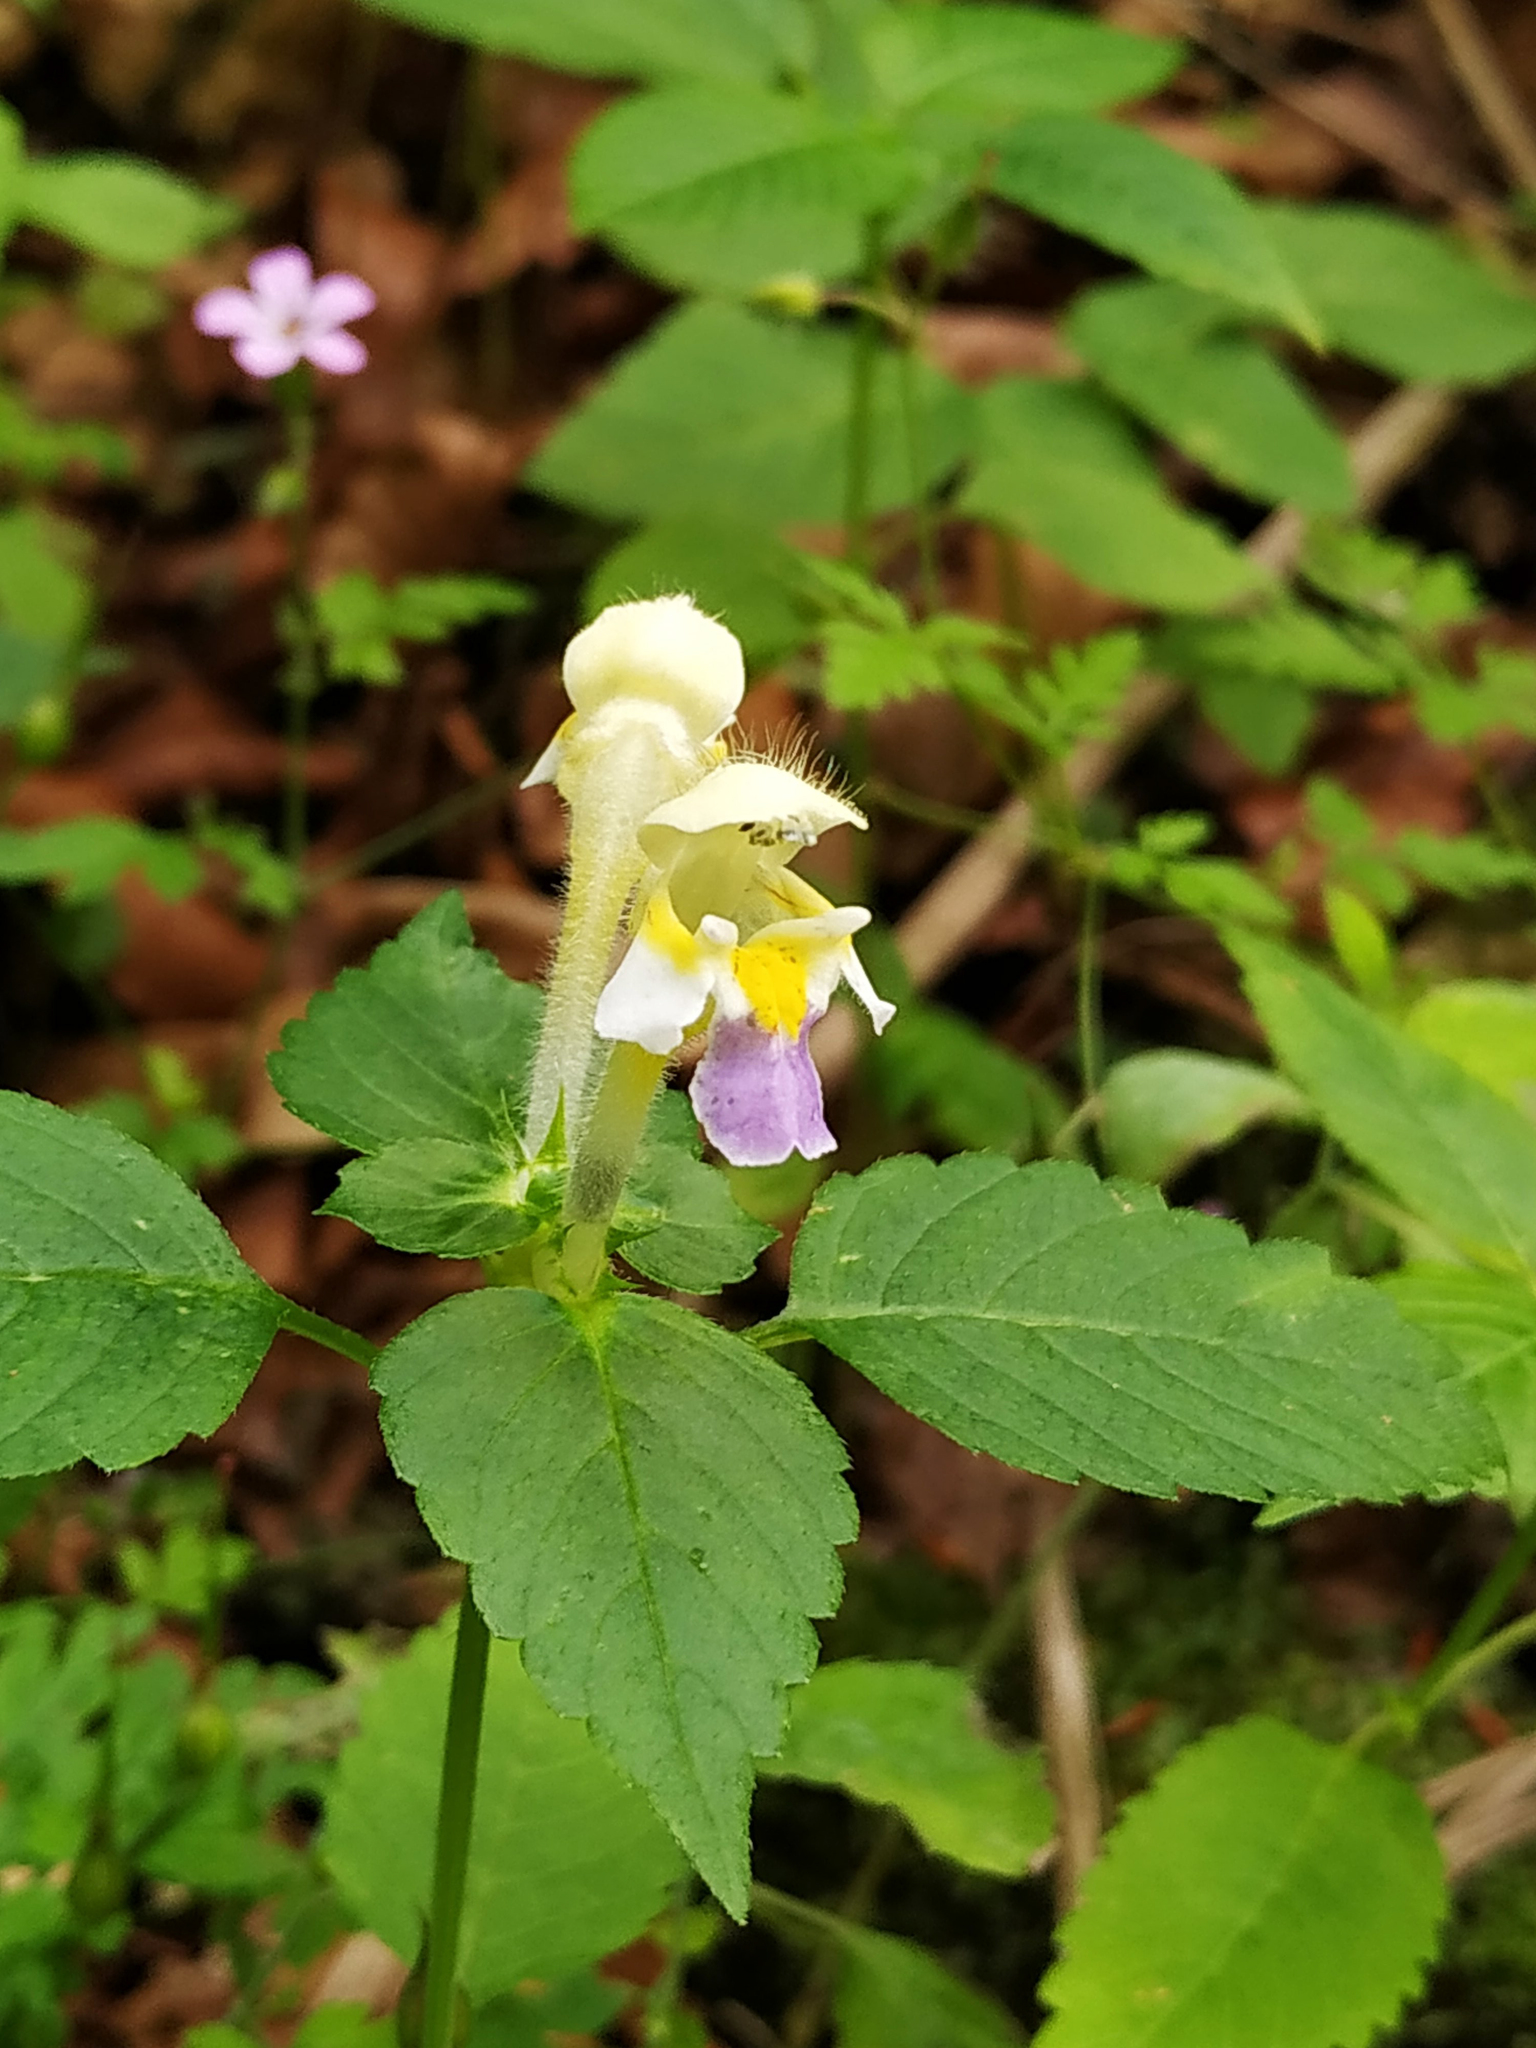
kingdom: Plantae
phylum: Tracheophyta
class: Magnoliopsida
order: Lamiales
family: Lamiaceae
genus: Galeopsis
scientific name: Galeopsis speciosa
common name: Large-flowered hemp-nettle
